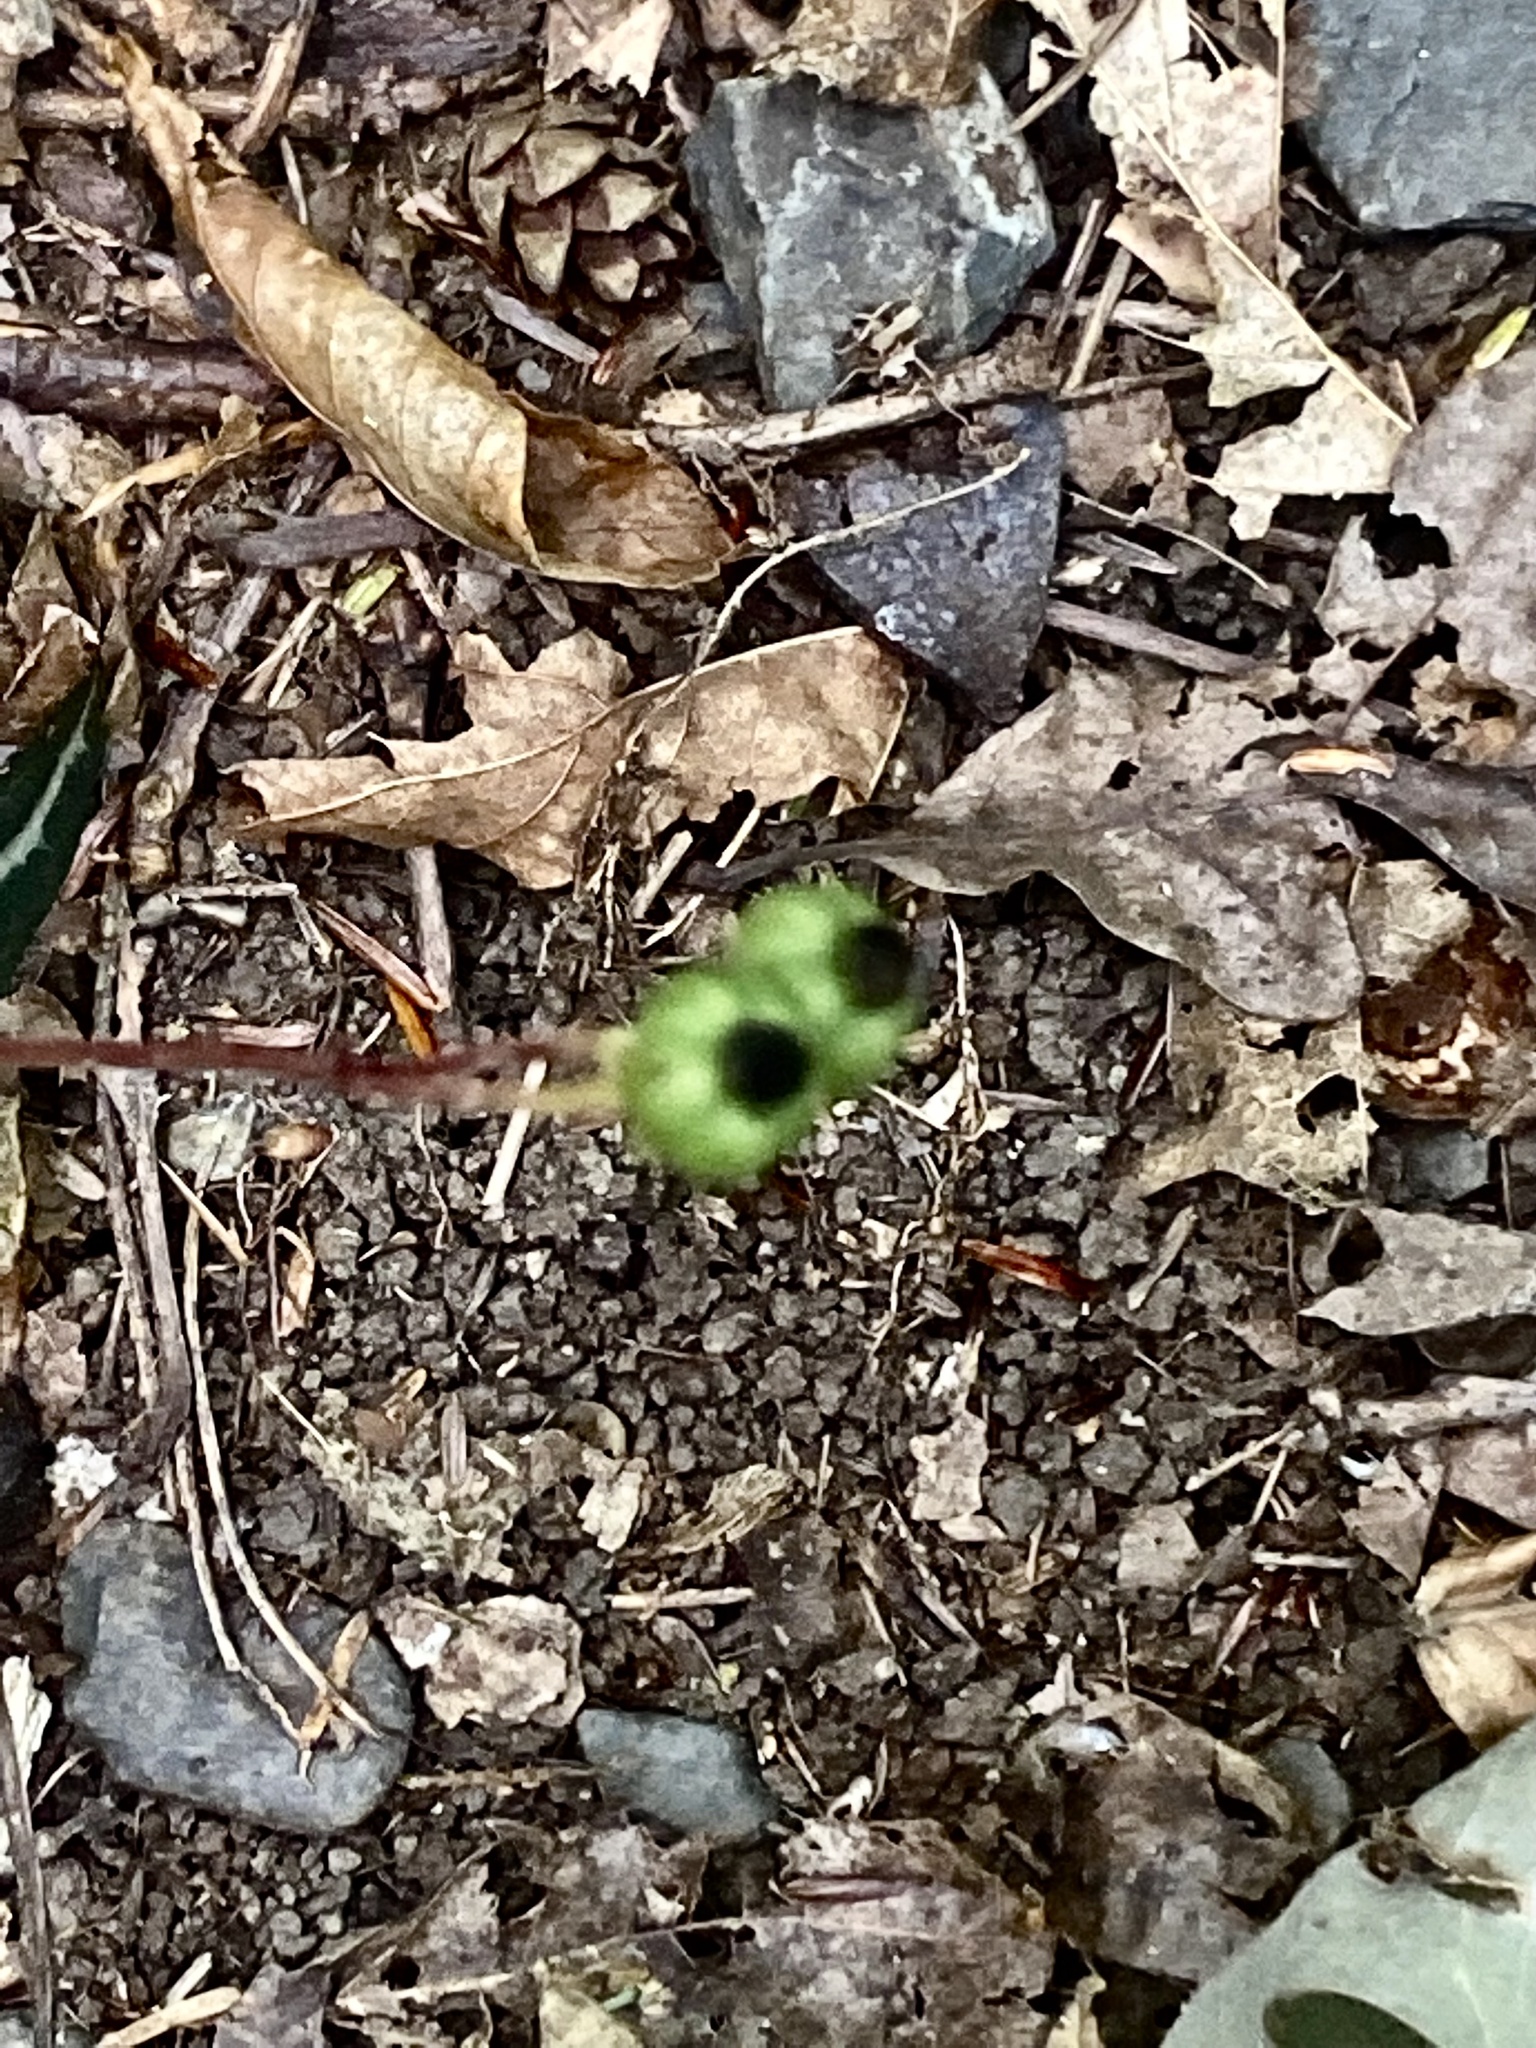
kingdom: Plantae
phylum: Tracheophyta
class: Magnoliopsida
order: Ericales
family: Ericaceae
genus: Chimaphila
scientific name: Chimaphila maculata
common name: Spotted pipsissewa
